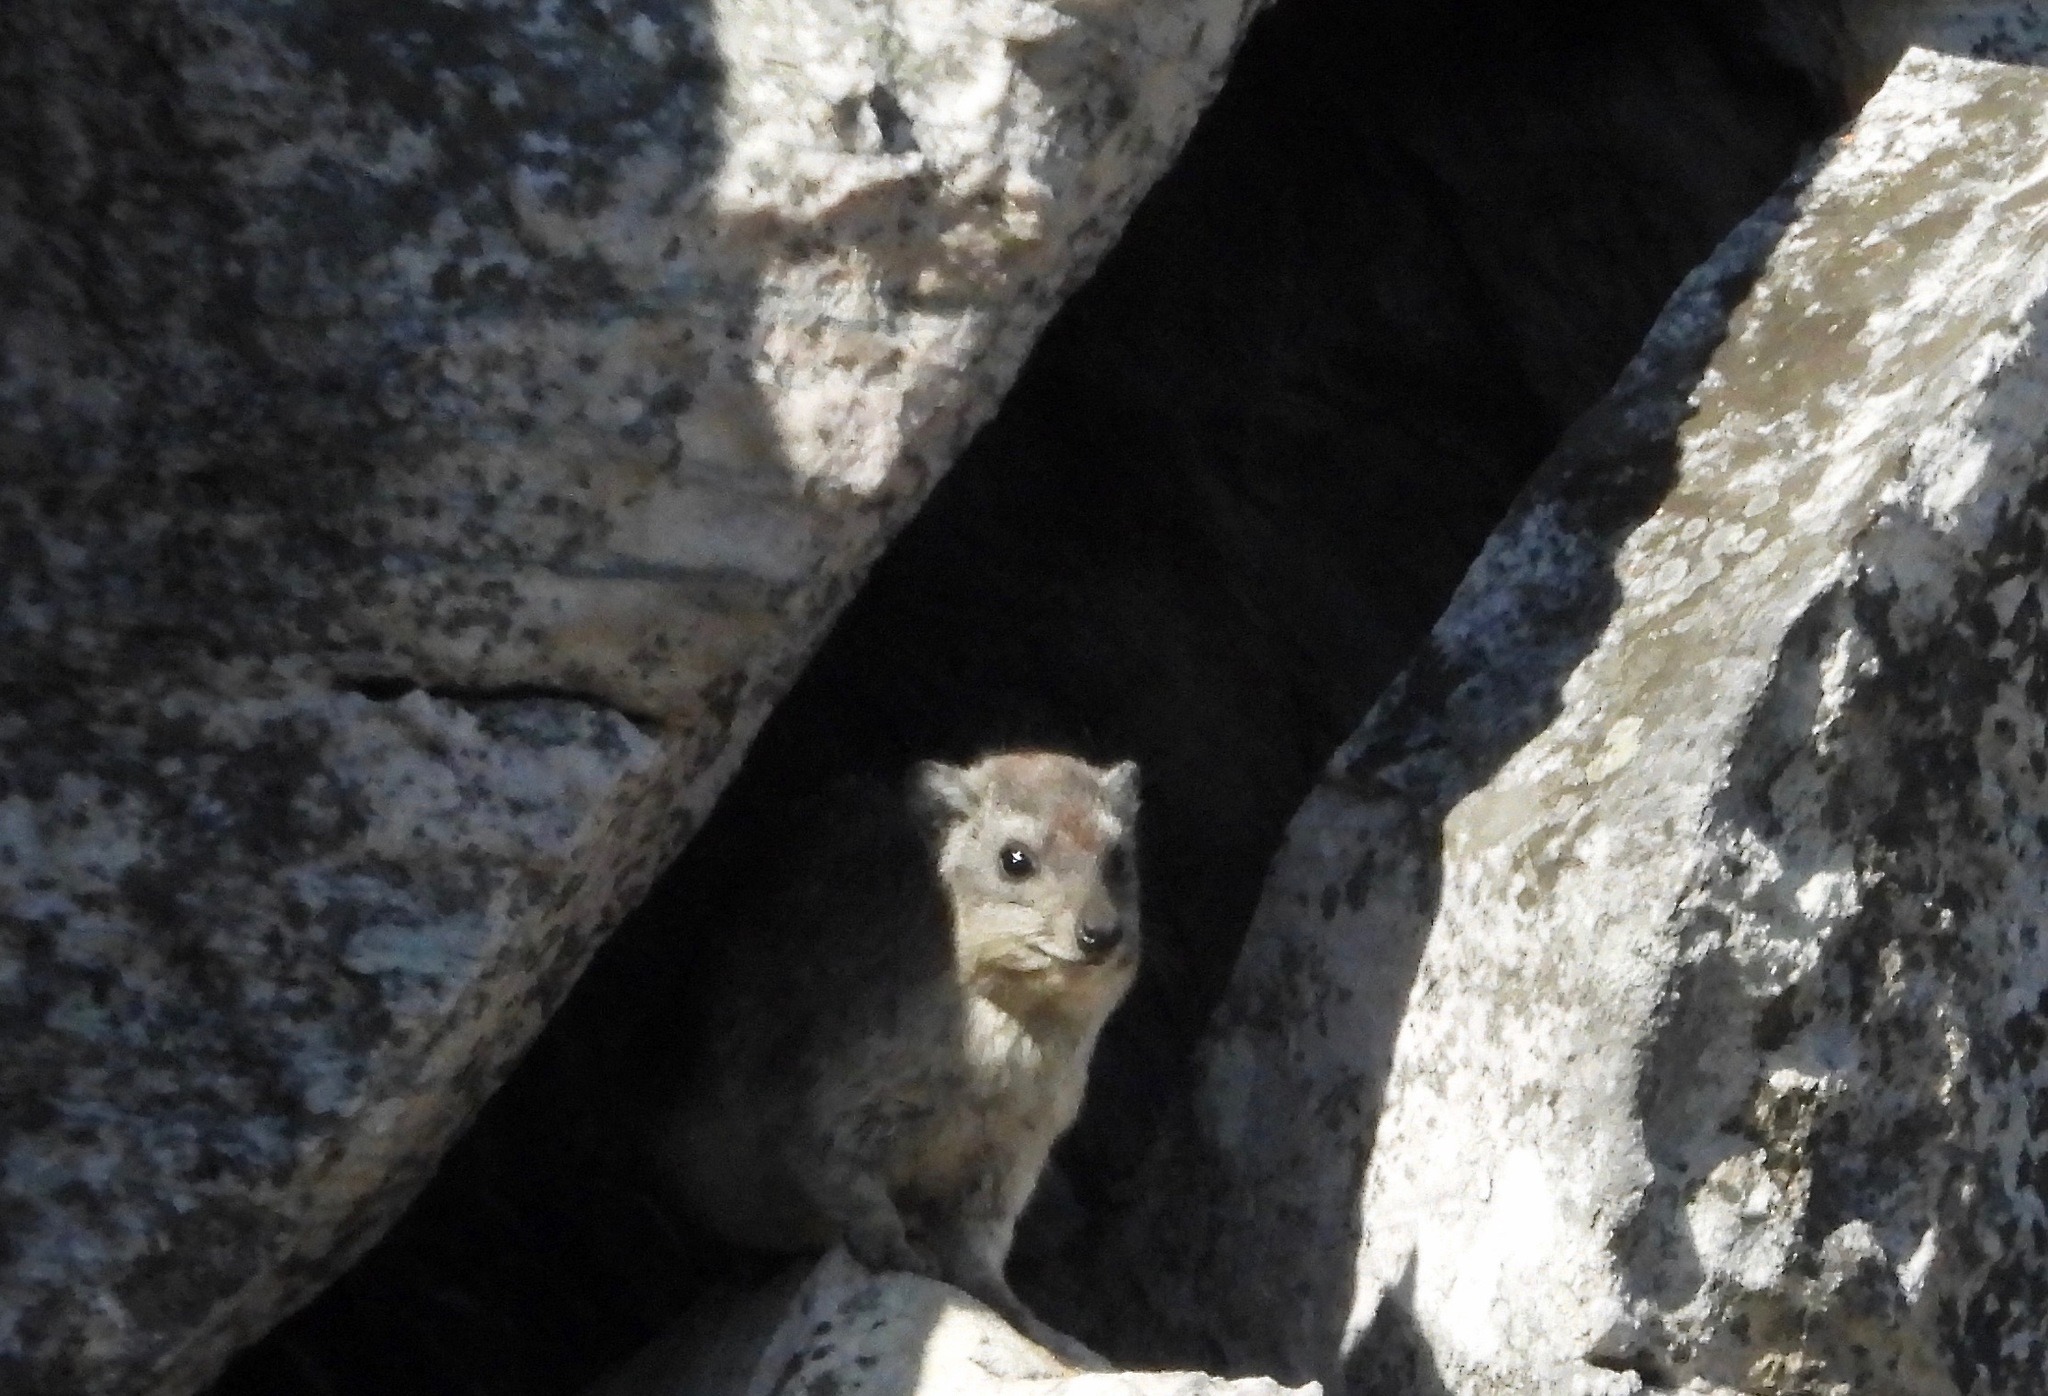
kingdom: Animalia
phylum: Chordata
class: Mammalia
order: Hyracoidea
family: Procaviidae
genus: Heterohyrax
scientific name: Heterohyrax brucei
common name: Bush hyrax
